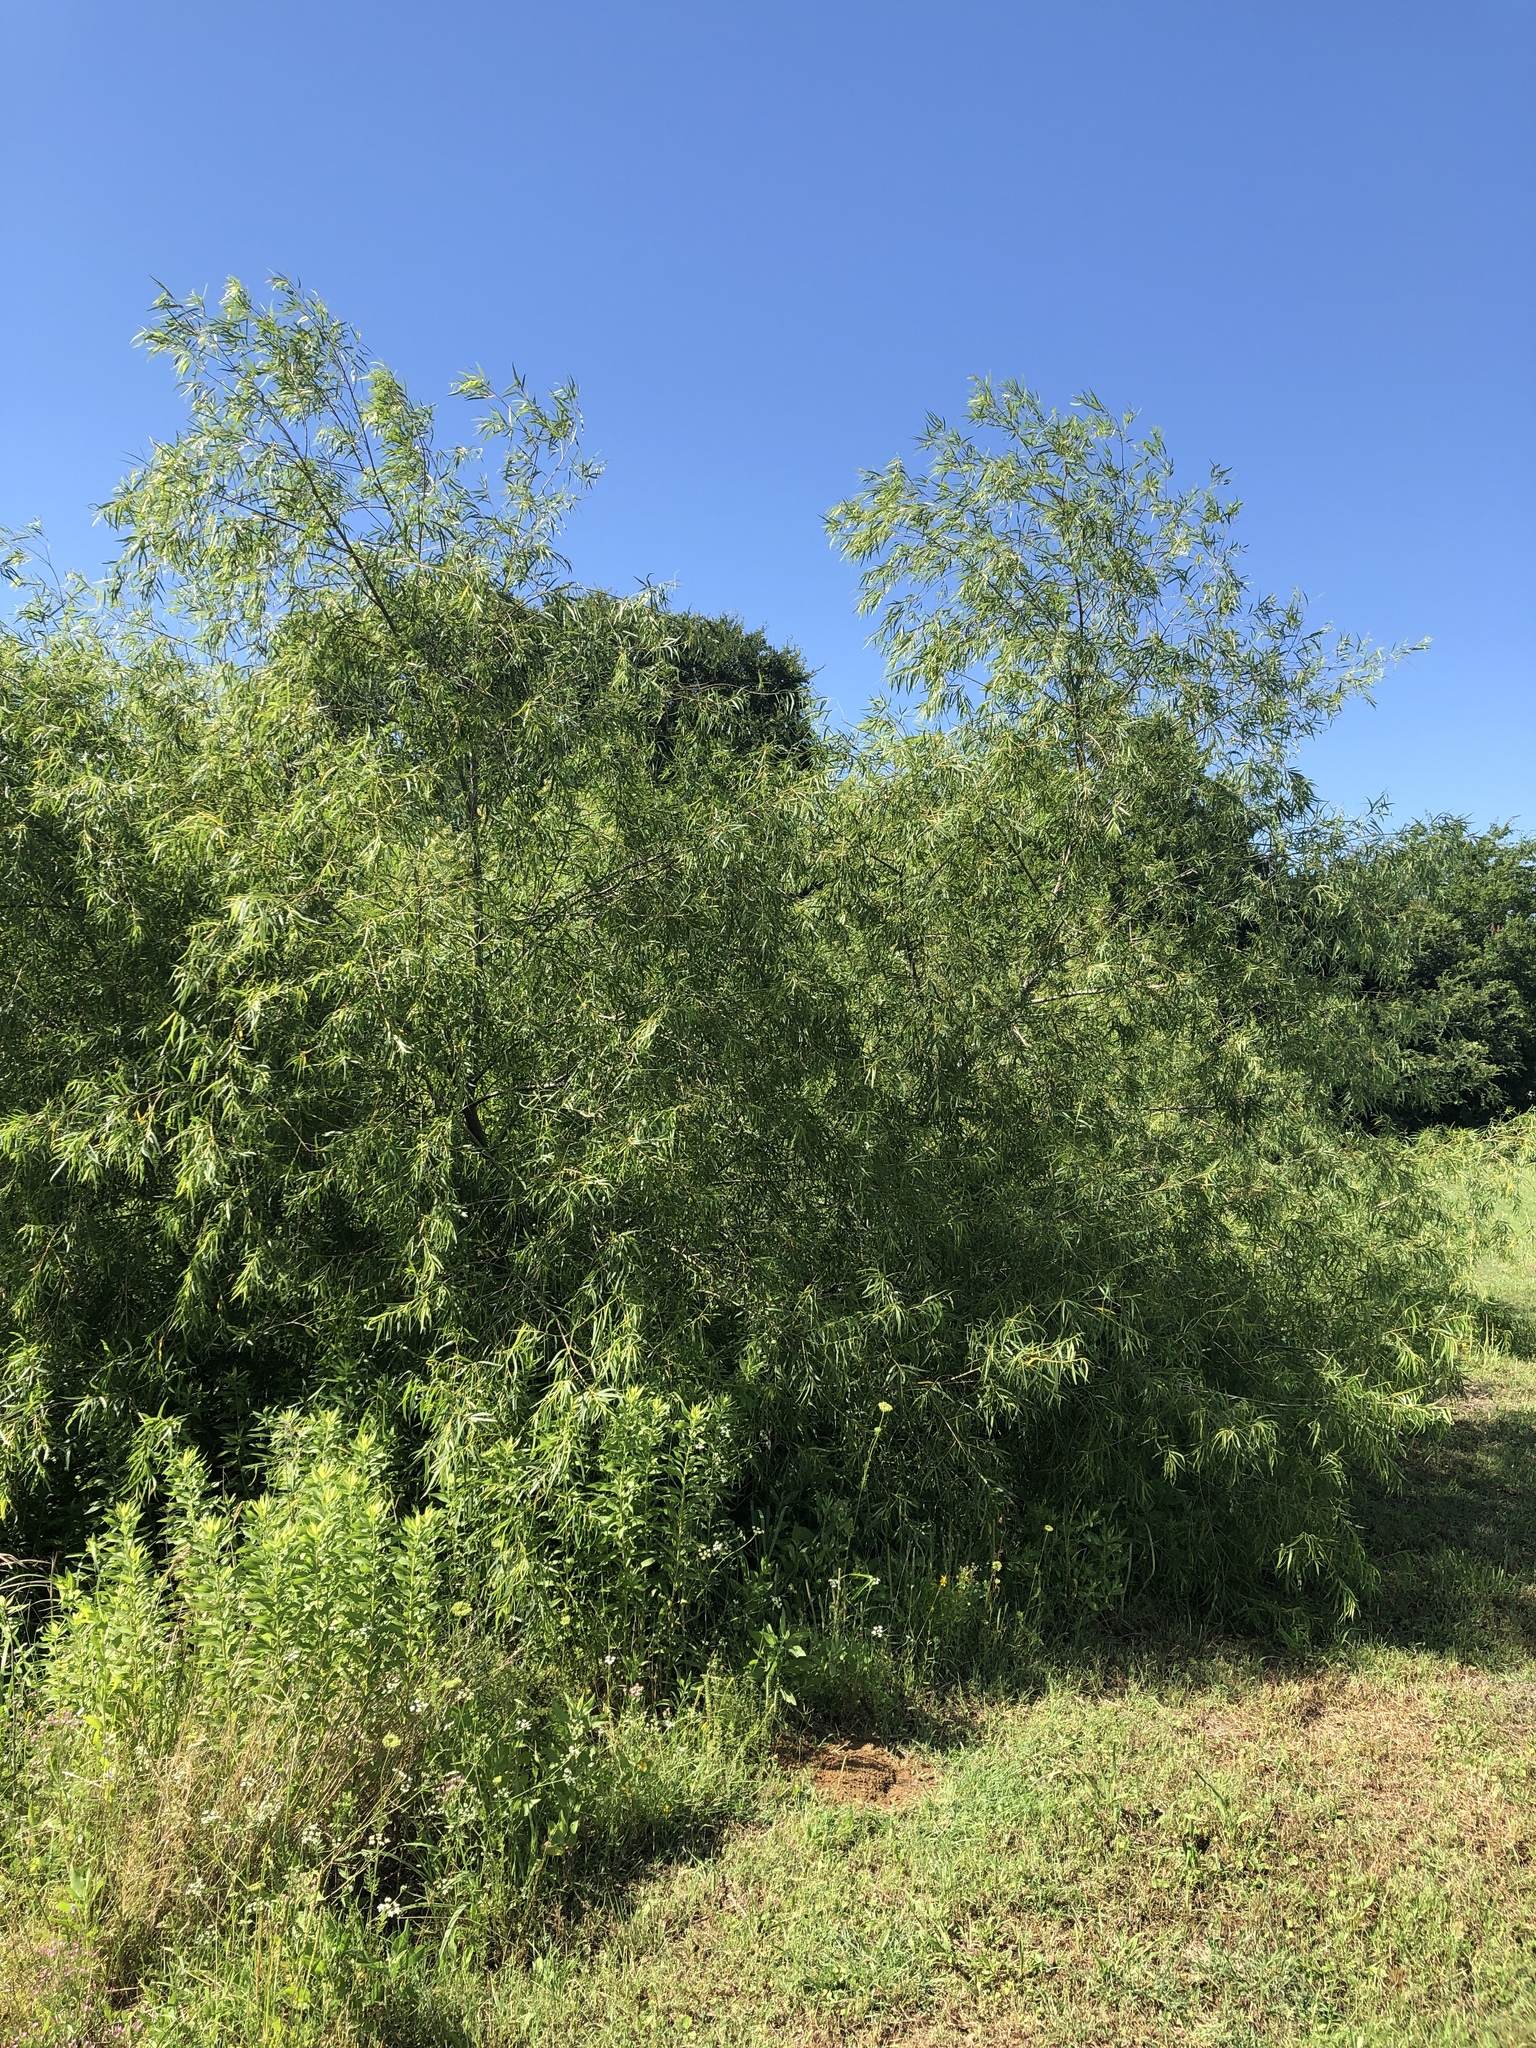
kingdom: Plantae
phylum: Tracheophyta
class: Magnoliopsida
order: Malpighiales
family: Salicaceae
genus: Salix
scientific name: Salix nigra
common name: Black willow
